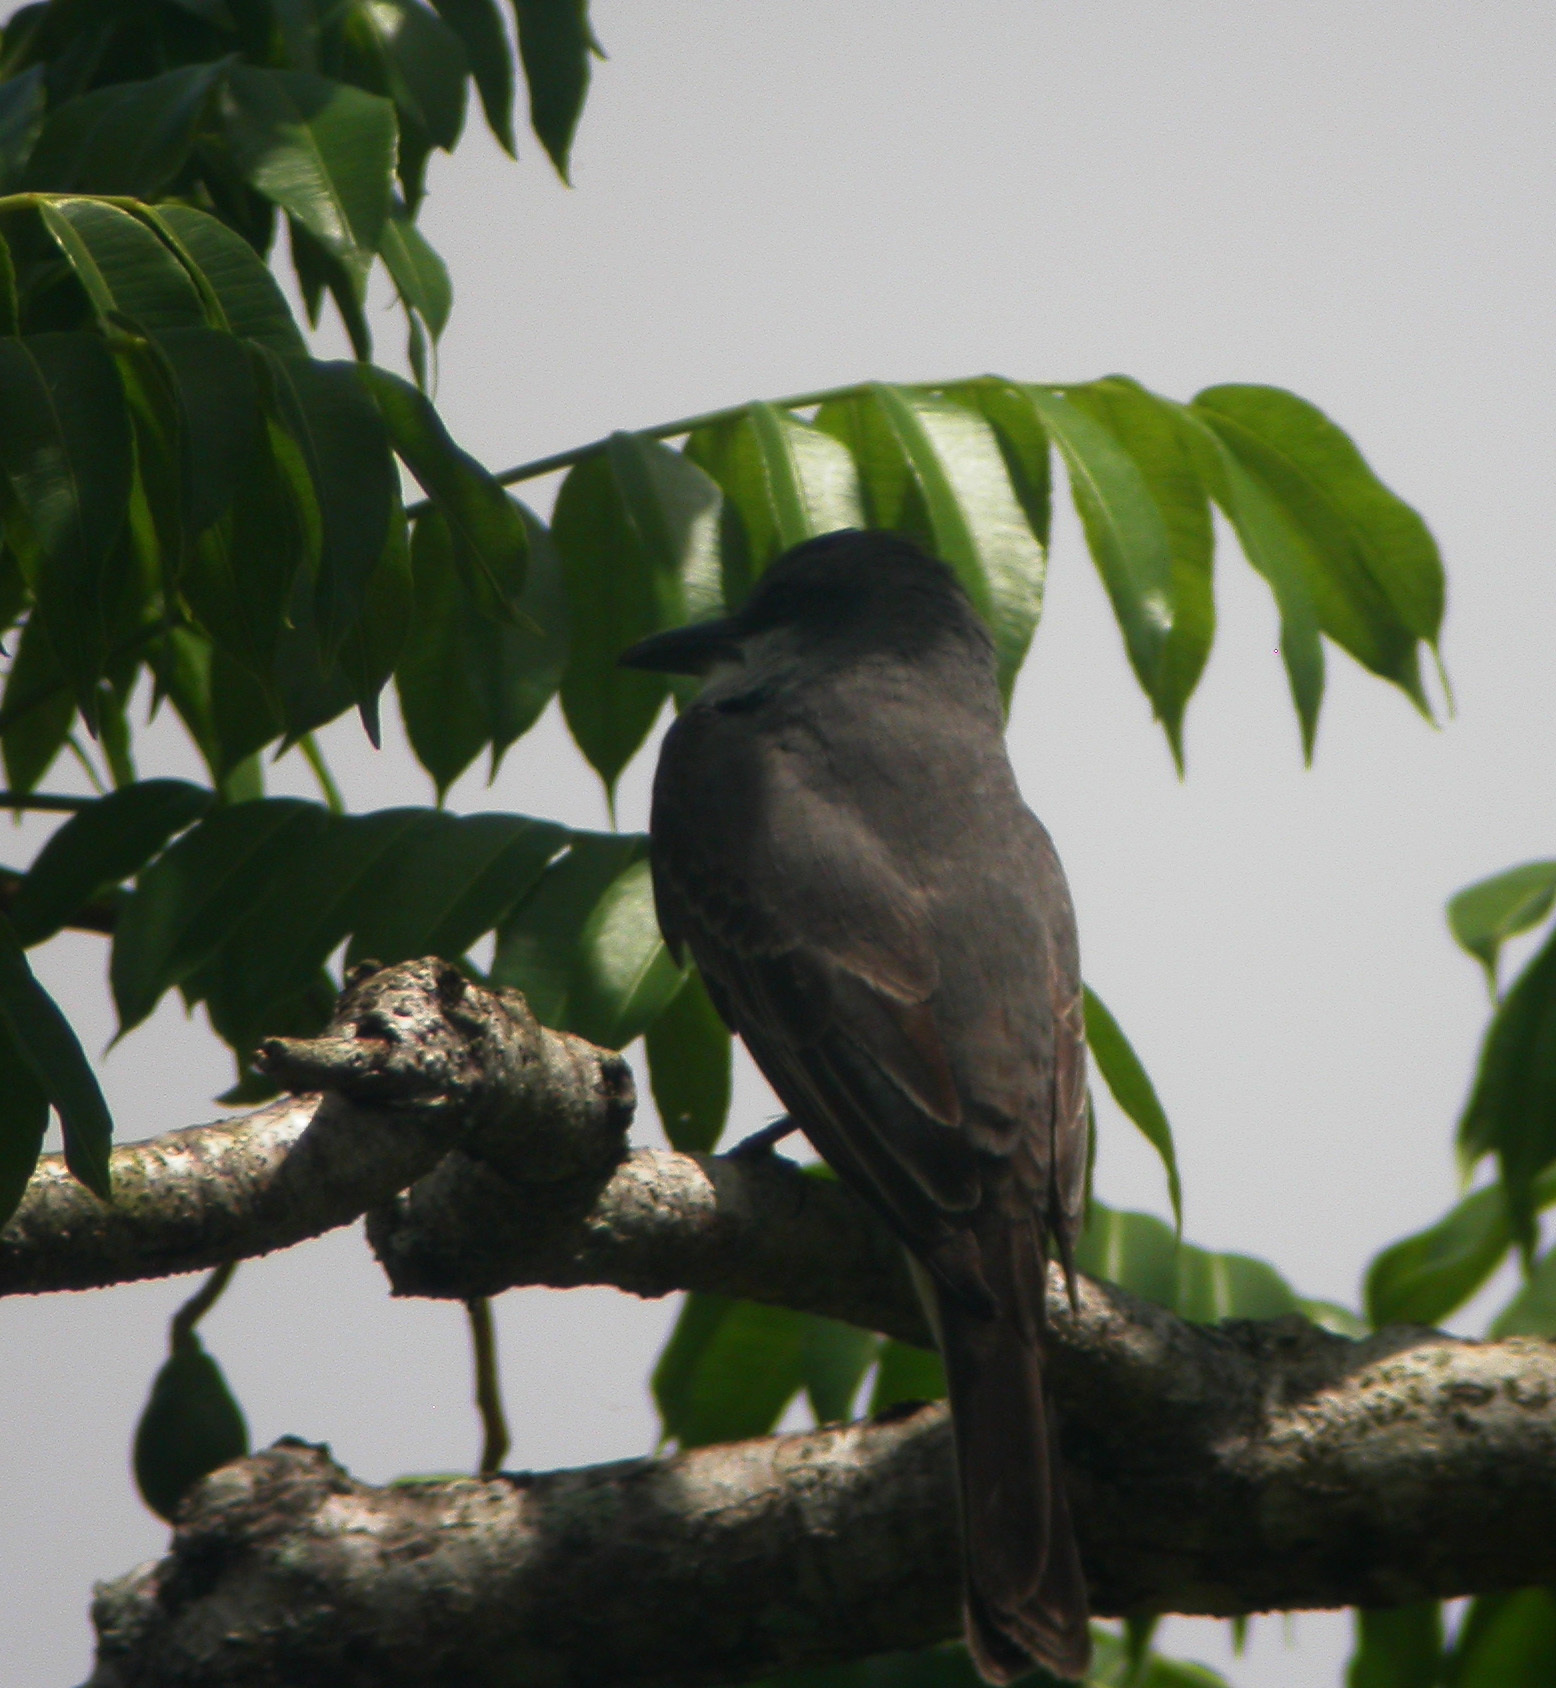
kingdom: Animalia
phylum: Chordata
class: Aves
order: Passeriformes
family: Tyrannidae
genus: Tyrannus
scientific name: Tyrannus dominicensis
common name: Gray kingbird
